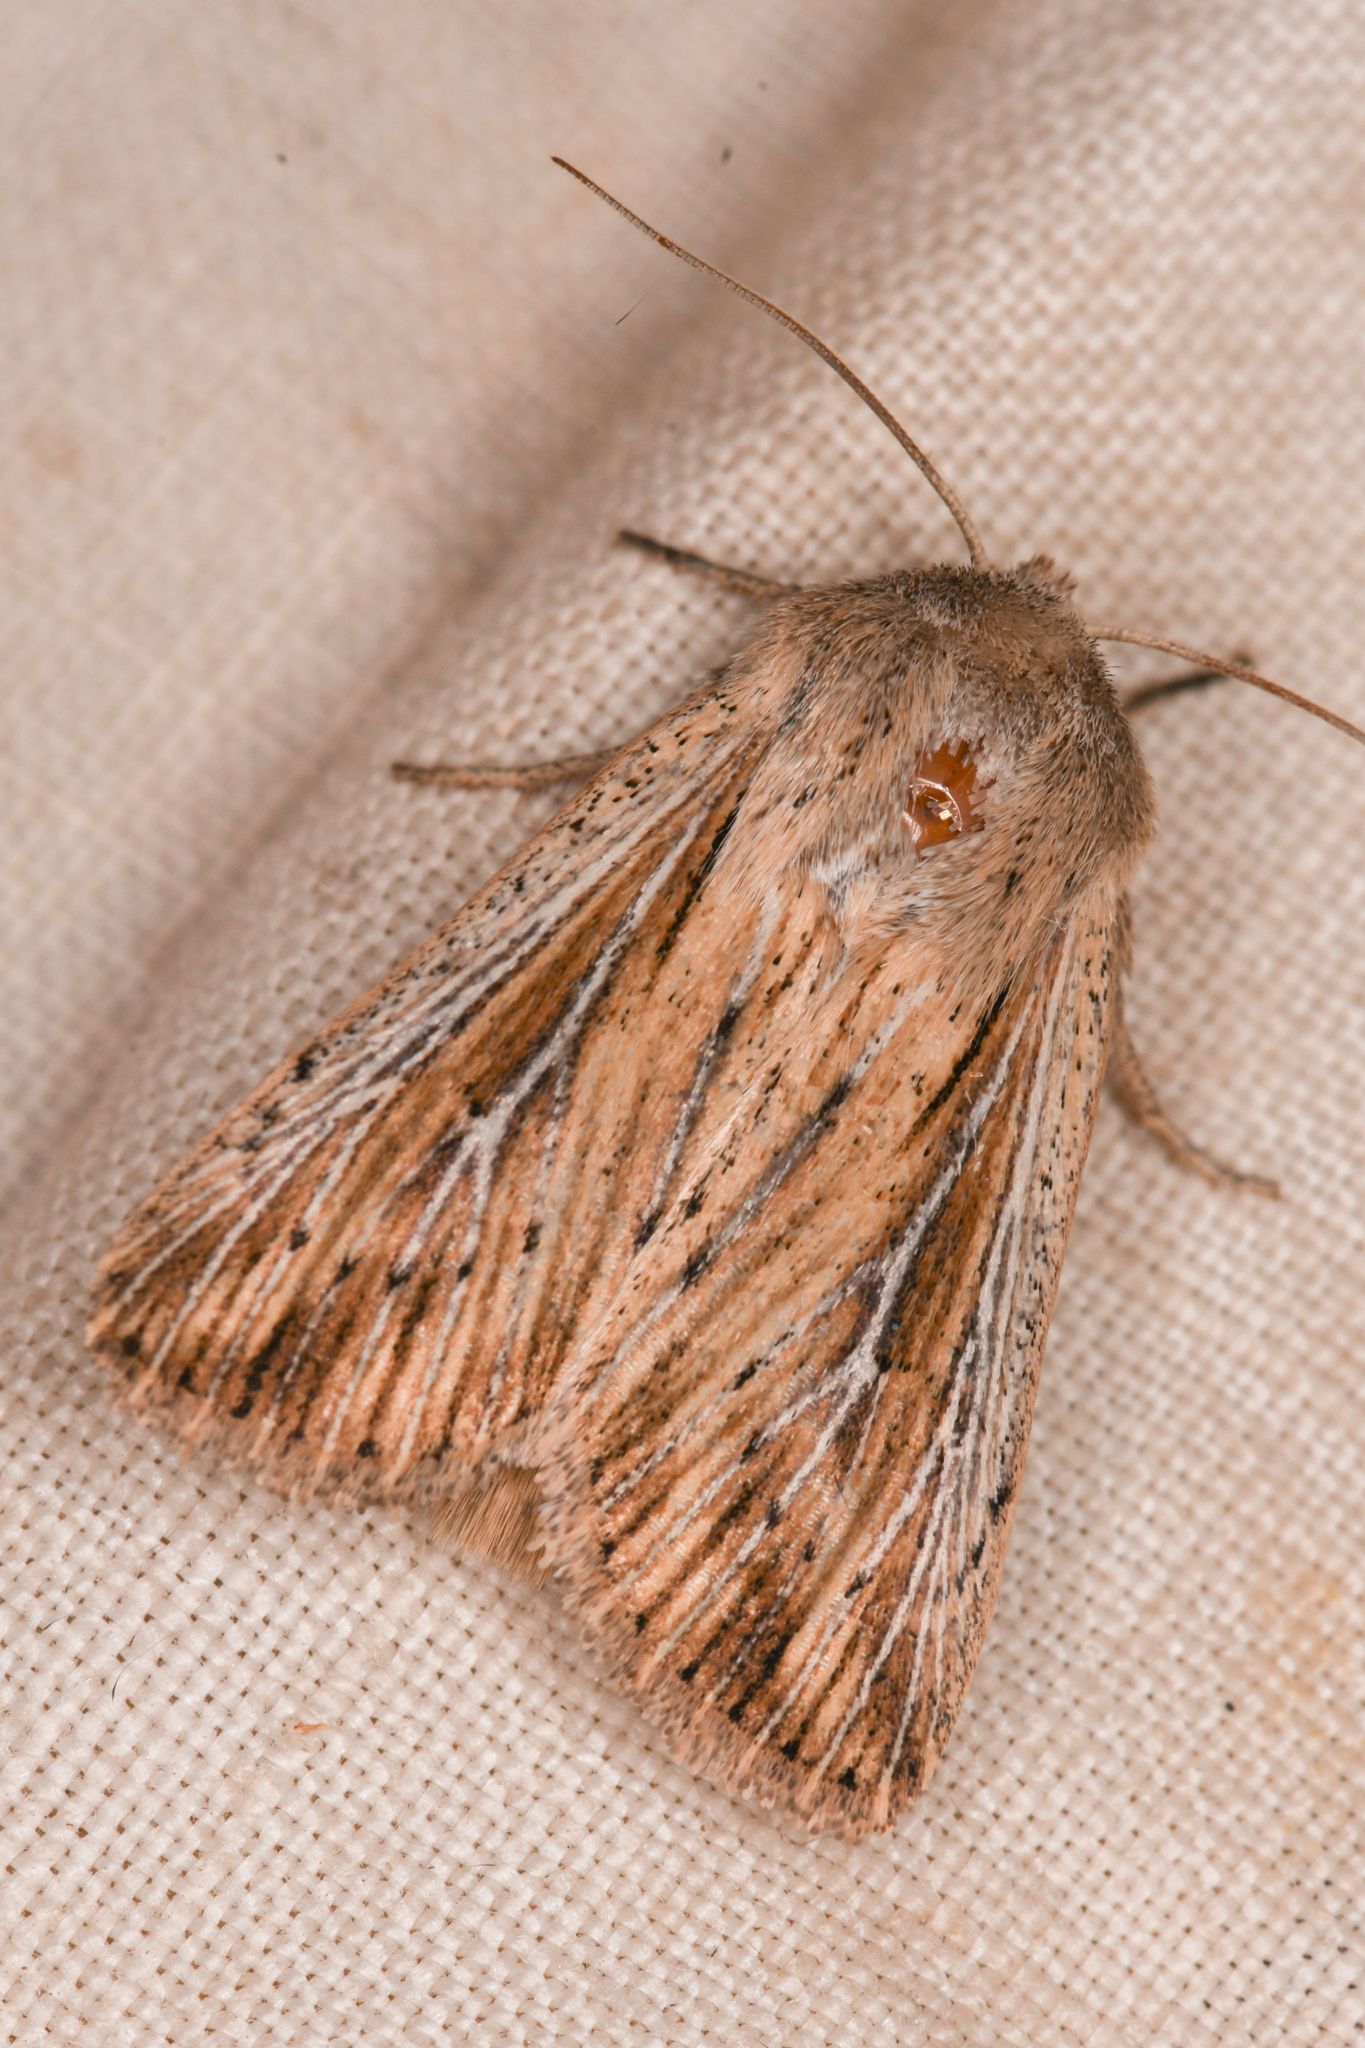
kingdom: Animalia
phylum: Arthropoda
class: Insecta
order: Lepidoptera
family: Noctuidae
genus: Leucania
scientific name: Leucania insueta
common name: Heterodox wainscot moth
